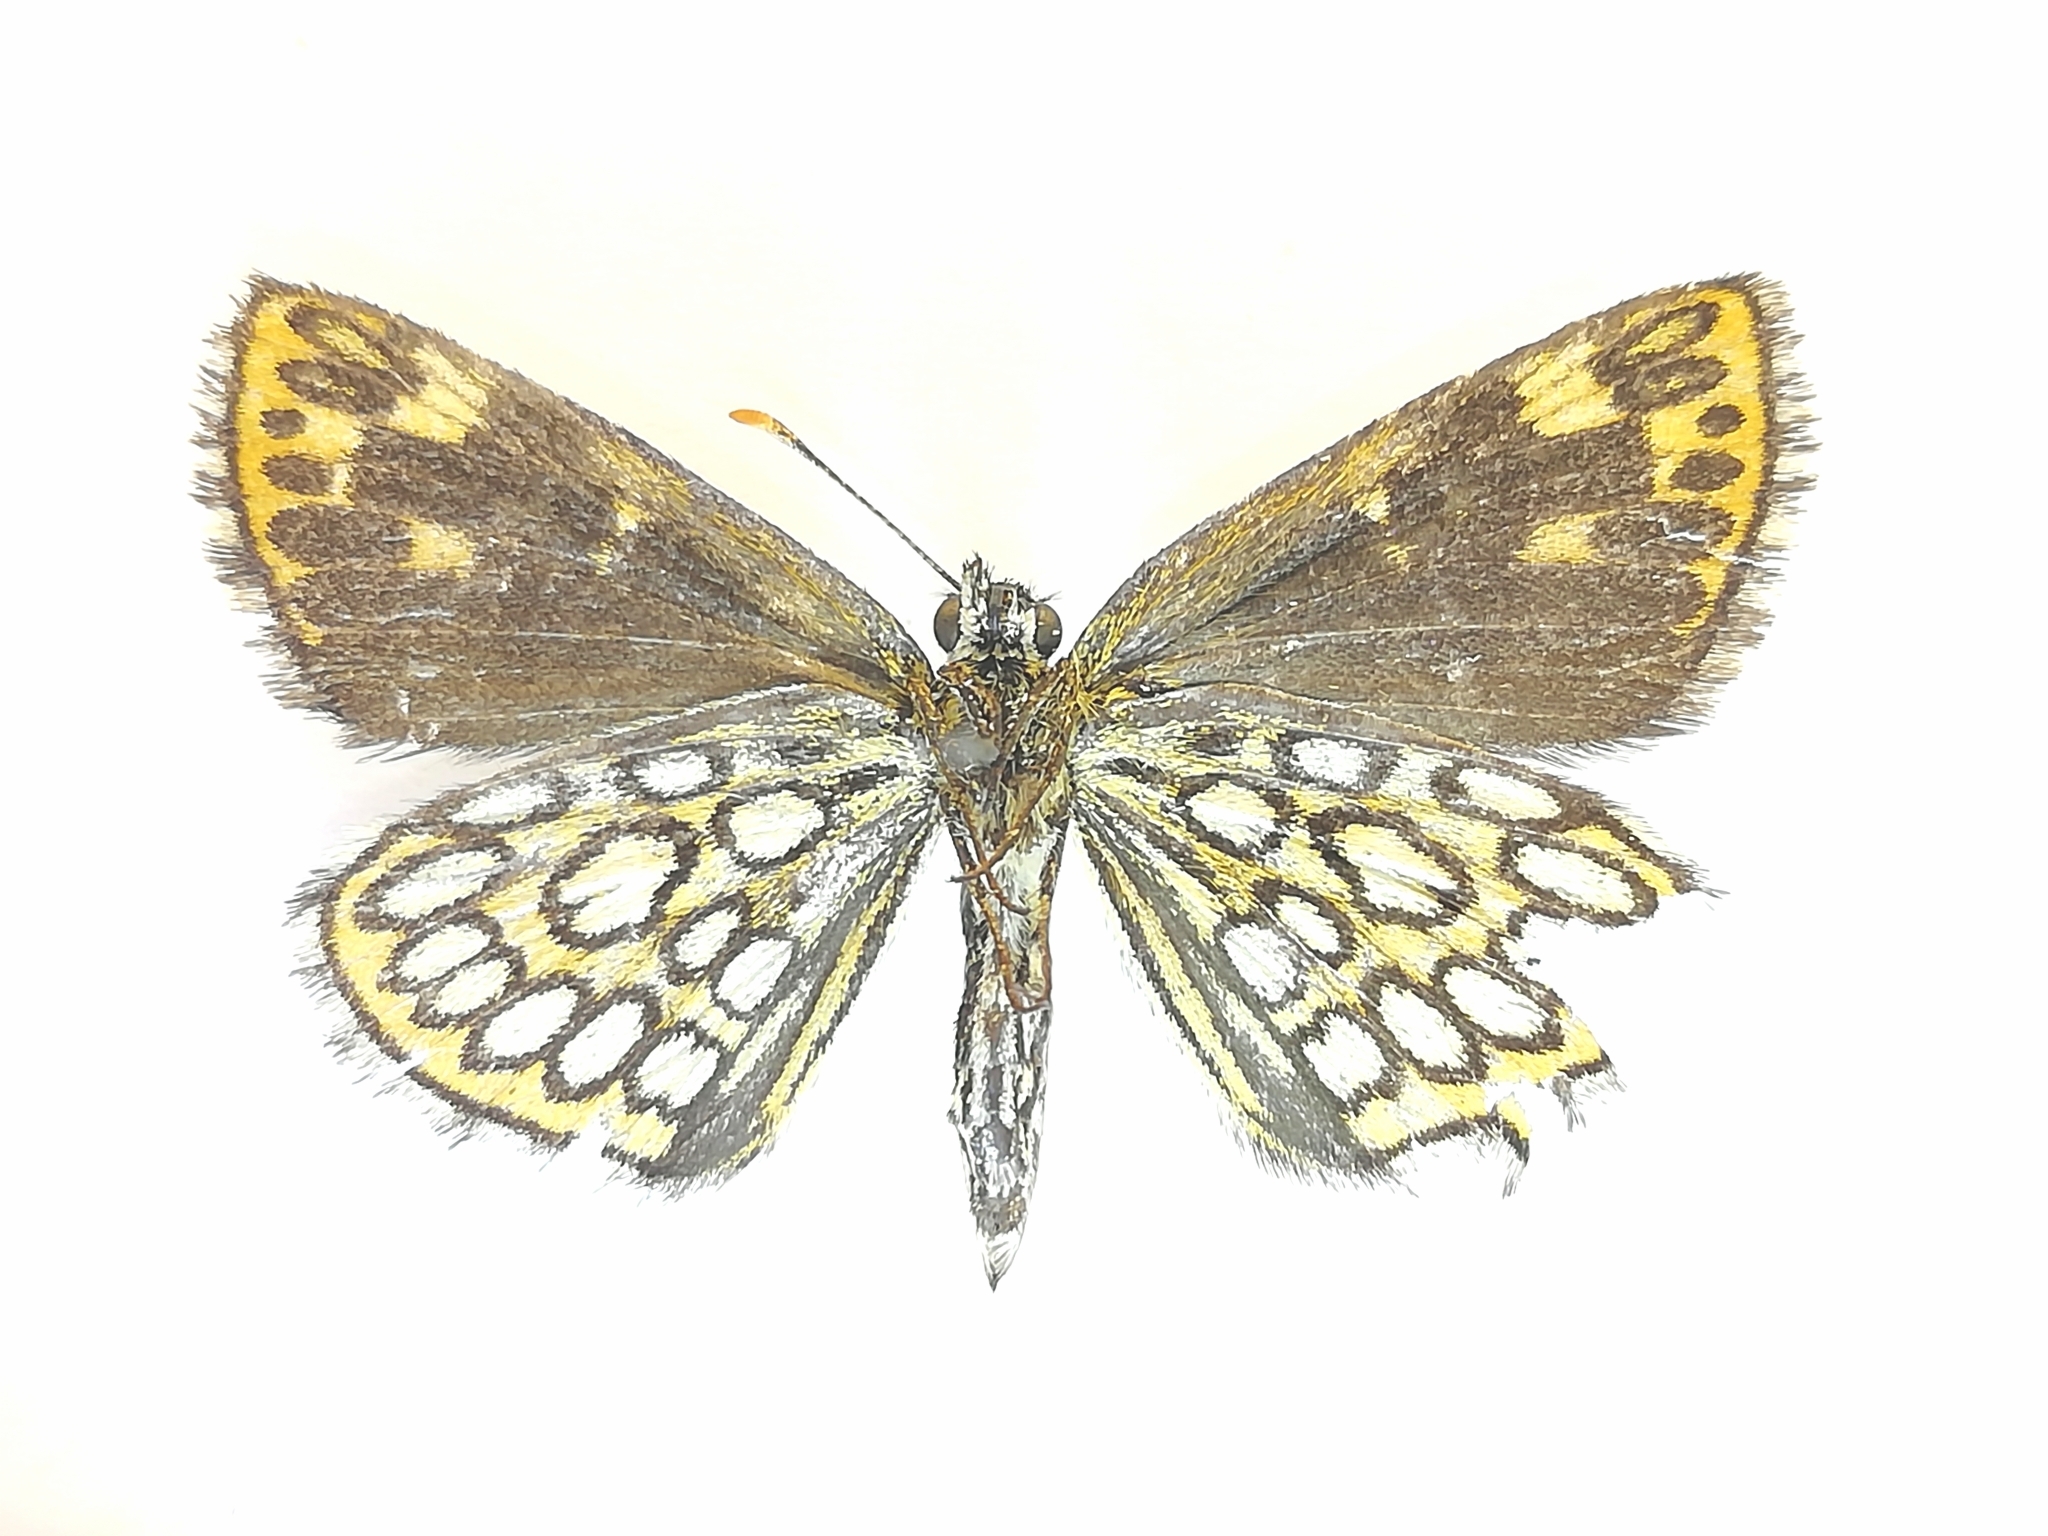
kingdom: Animalia
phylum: Arthropoda
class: Insecta
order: Lepidoptera
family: Hesperiidae
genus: Heteropterus
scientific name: Heteropterus morpheus
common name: Large chequered skipper
